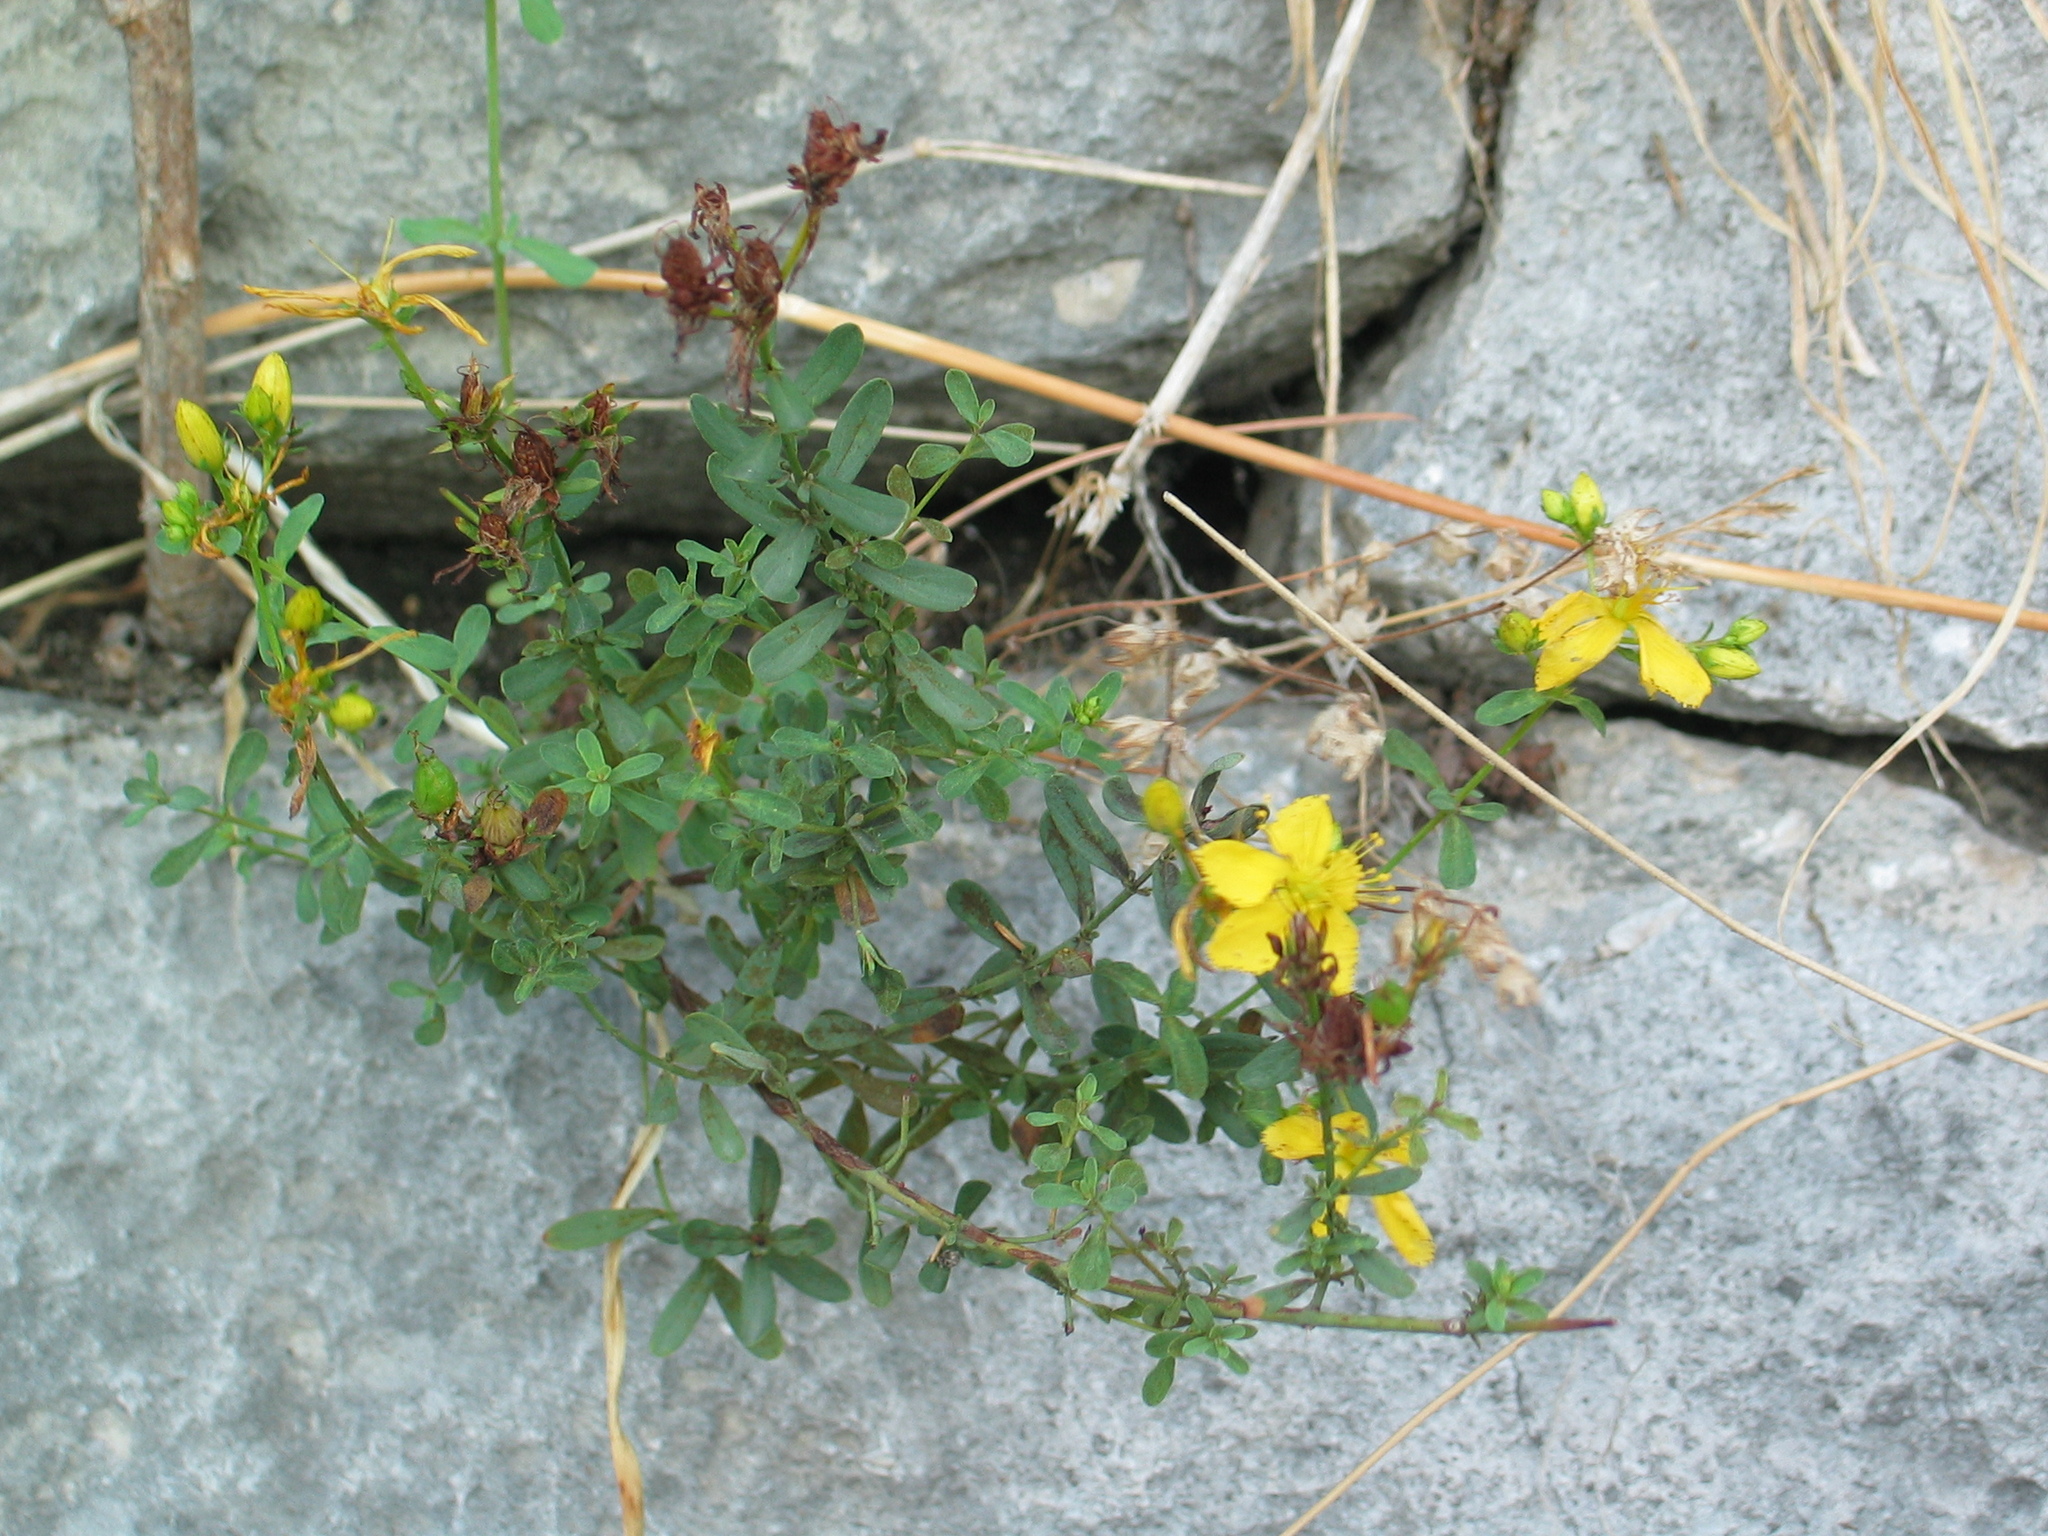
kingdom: Plantae
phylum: Tracheophyta
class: Magnoliopsida
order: Malpighiales
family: Hypericaceae
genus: Hypericum
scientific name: Hypericum perforatum
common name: Common st. johnswort
